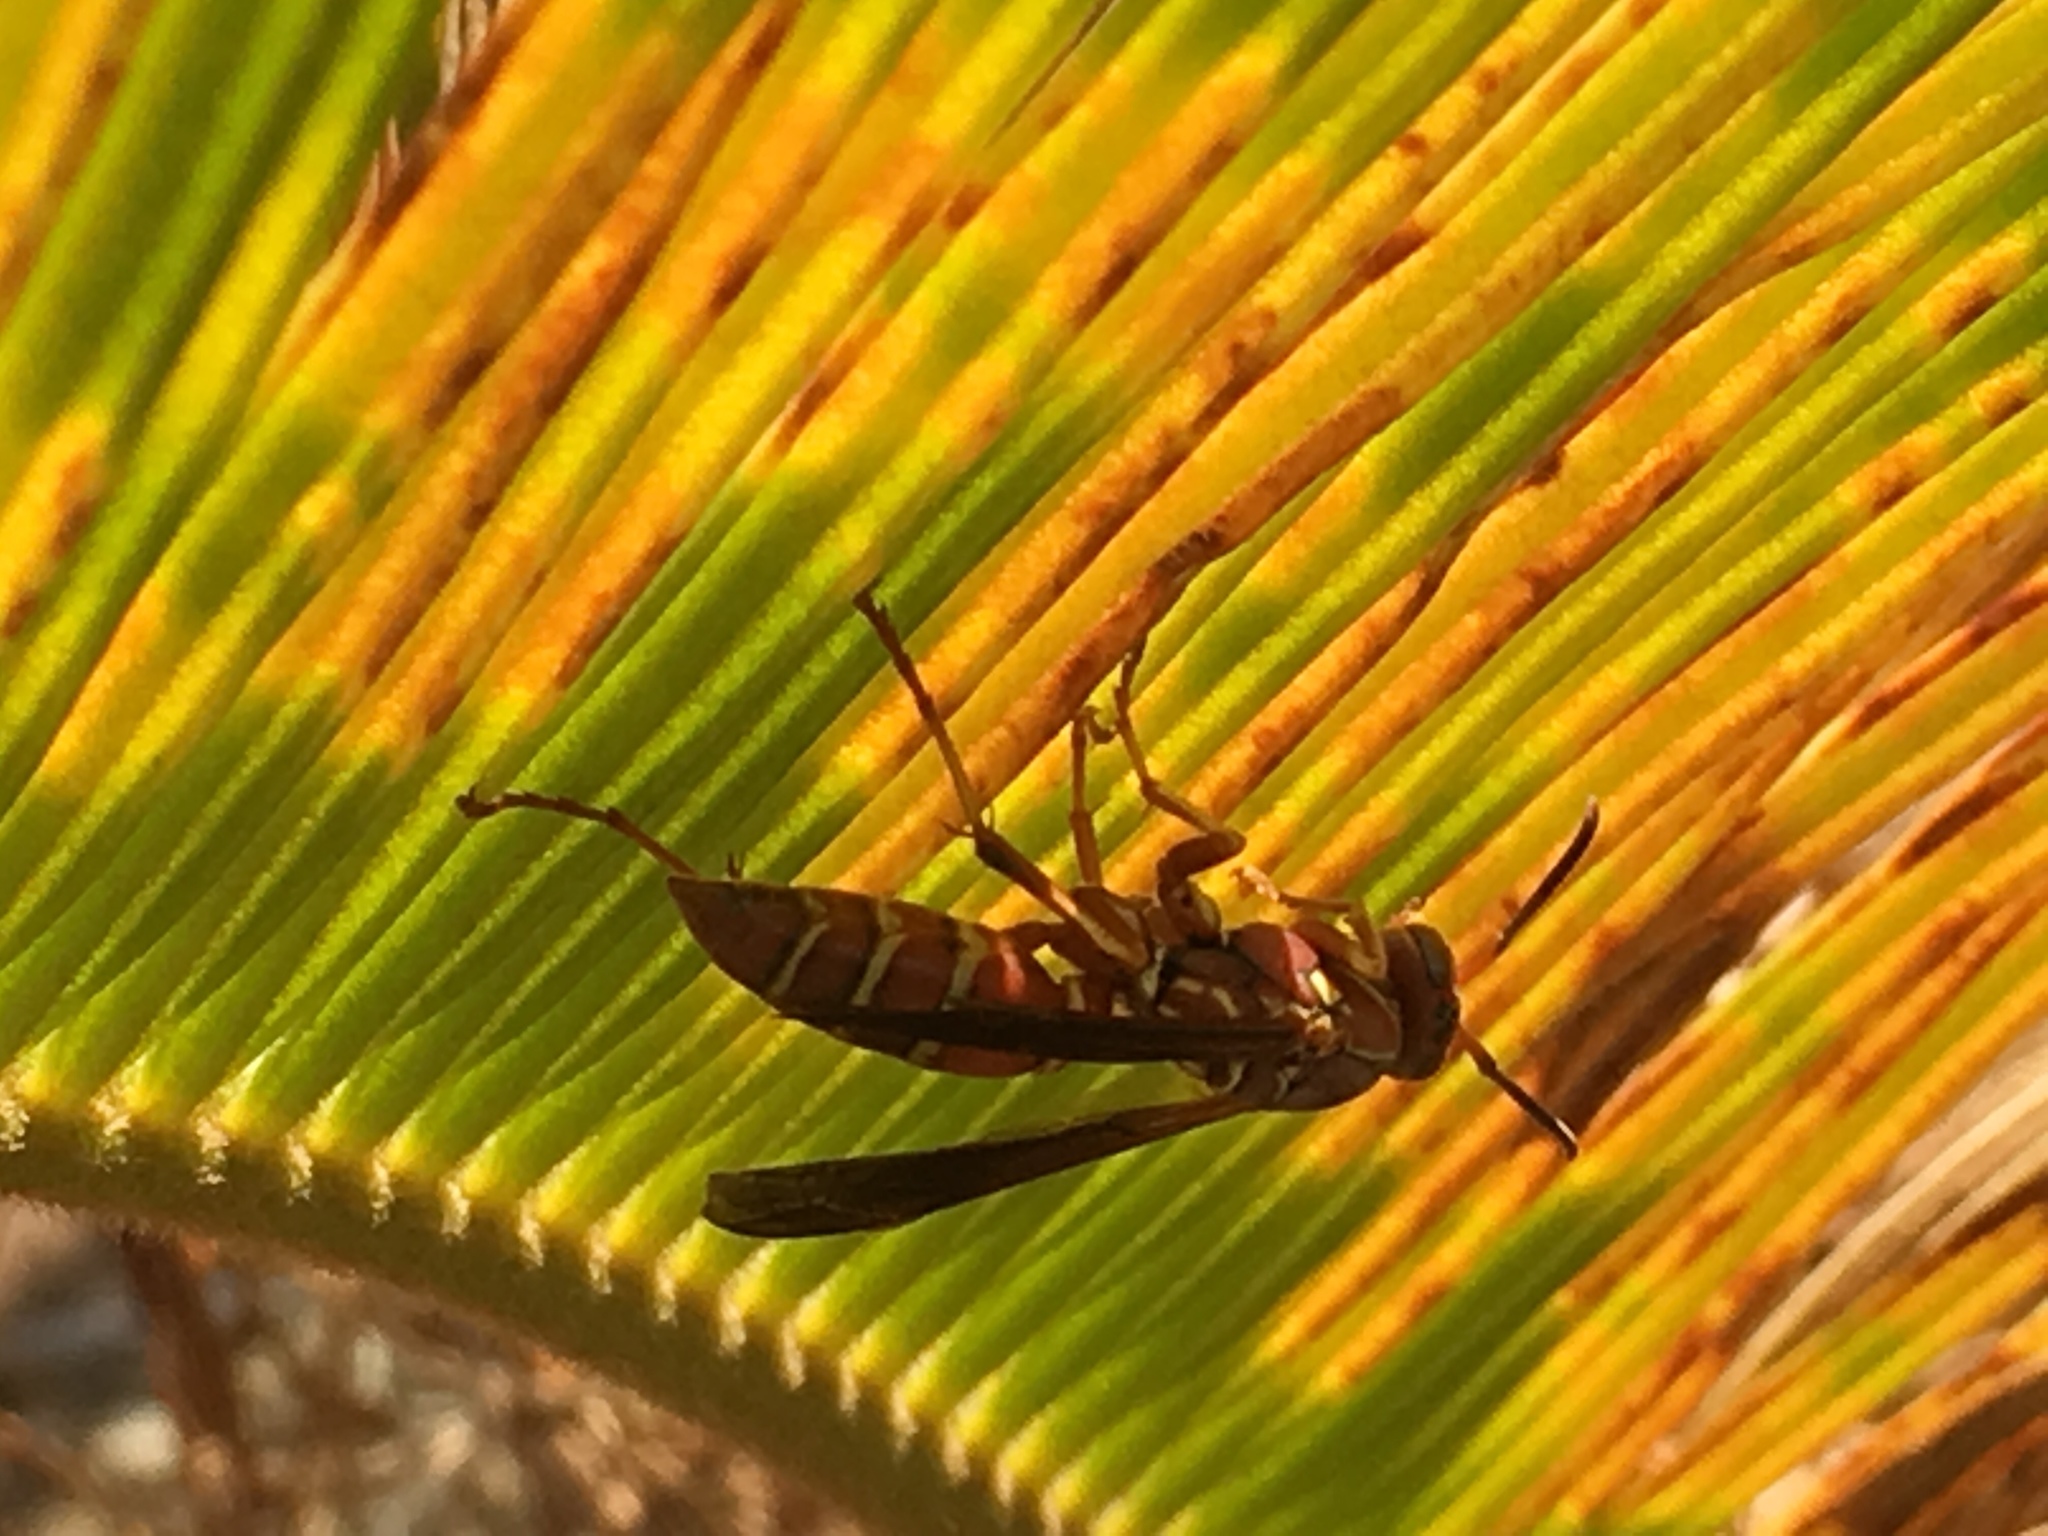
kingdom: Animalia
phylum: Arthropoda
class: Insecta
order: Hymenoptera
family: Eumenidae
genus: Polistes
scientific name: Polistes bellicosus
